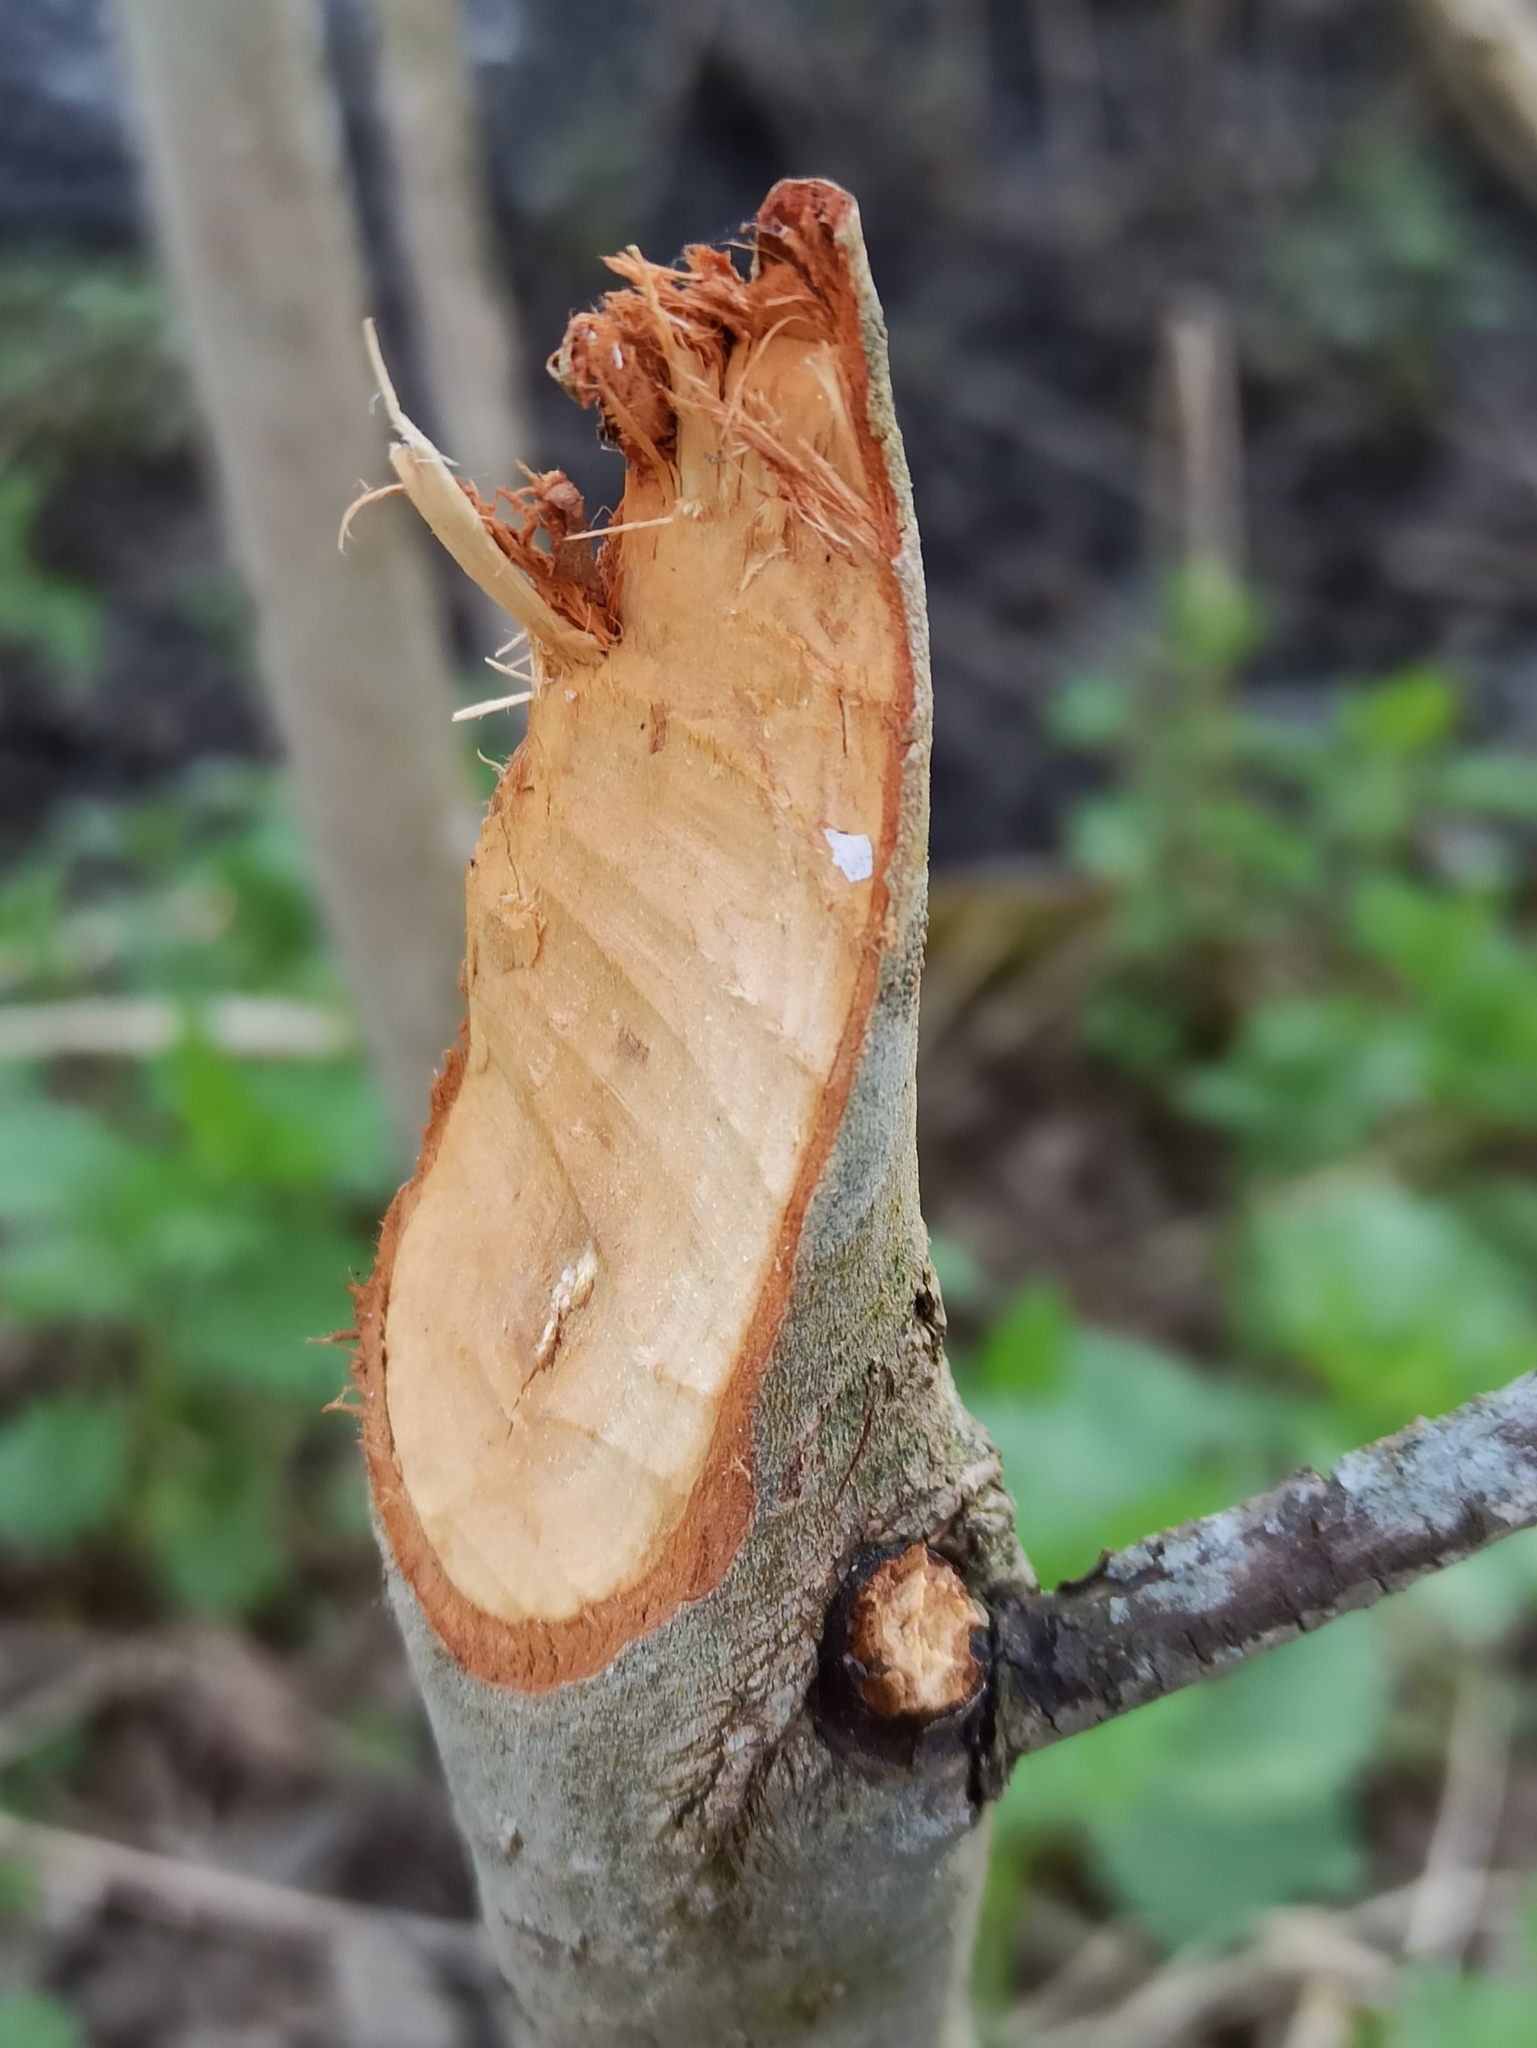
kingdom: Animalia
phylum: Chordata
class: Mammalia
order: Rodentia
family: Castoridae
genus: Castor
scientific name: Castor fiber
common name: Eurasian beaver
